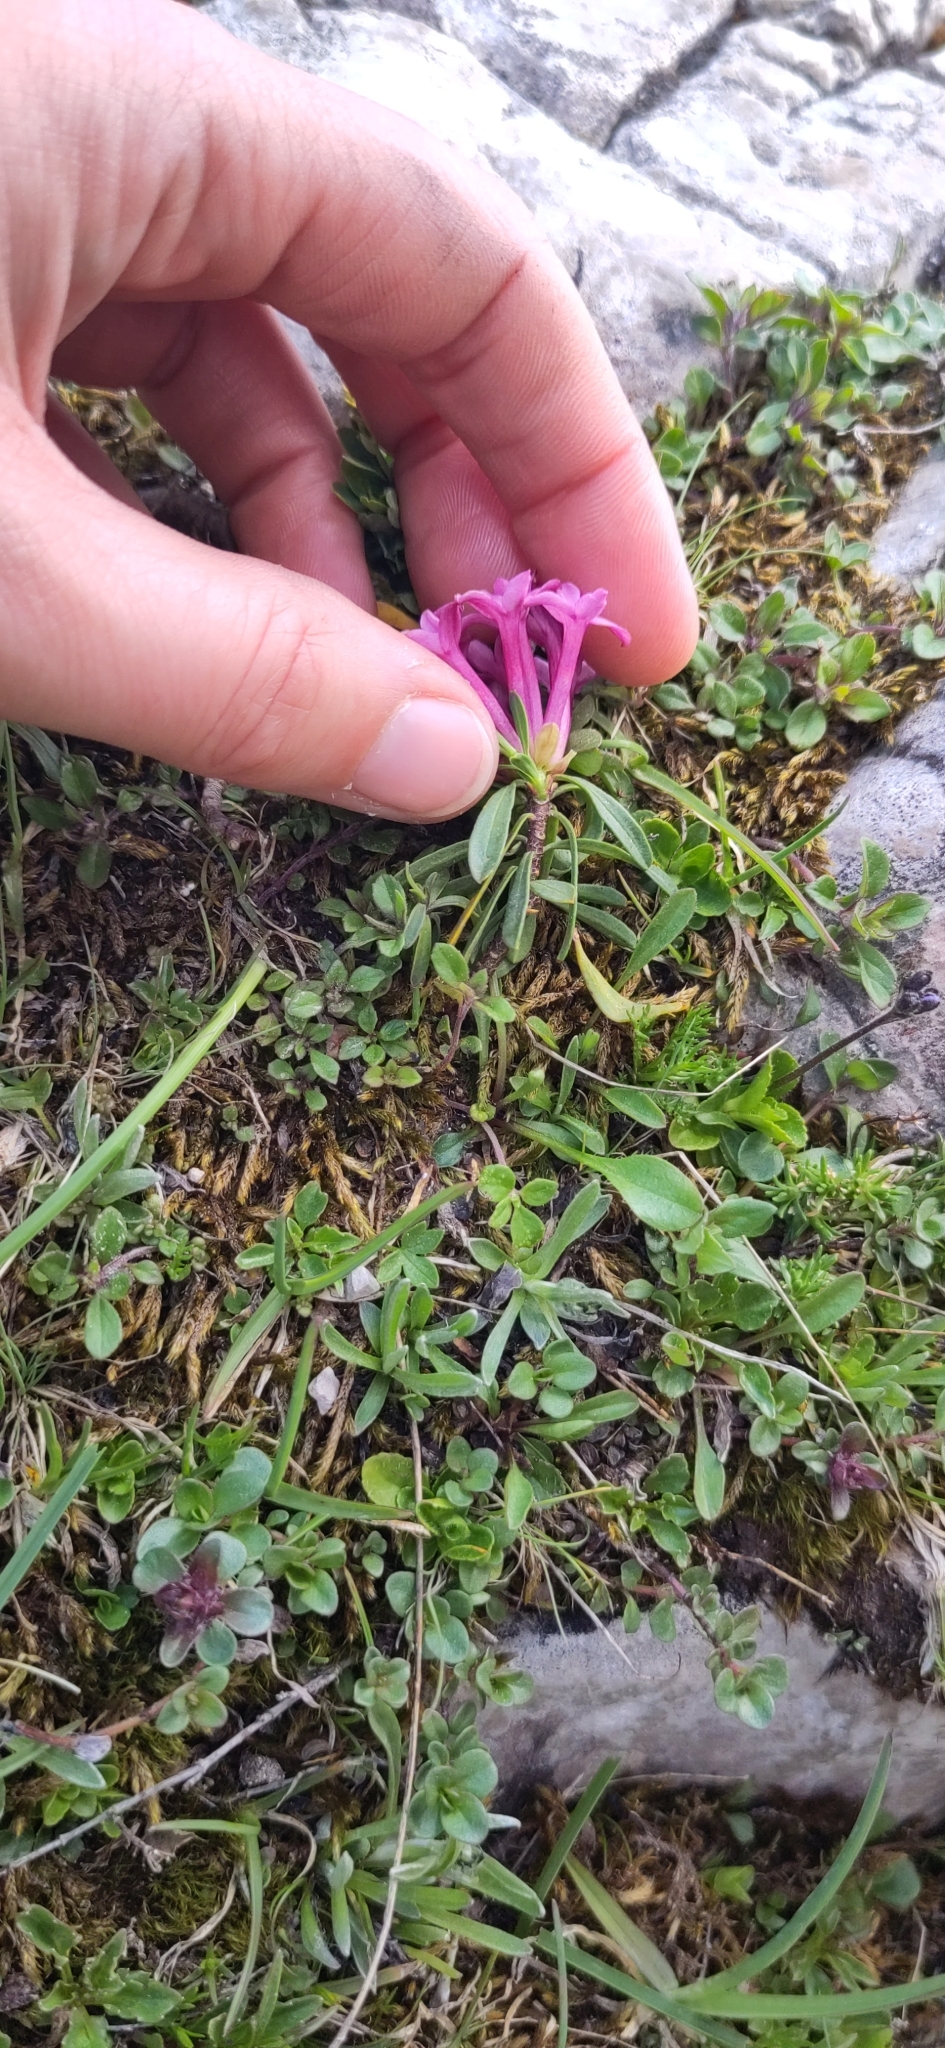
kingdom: Plantae
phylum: Tracheophyta
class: Magnoliopsida
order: Malvales
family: Thymelaeaceae
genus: Daphne
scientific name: Daphne striata
